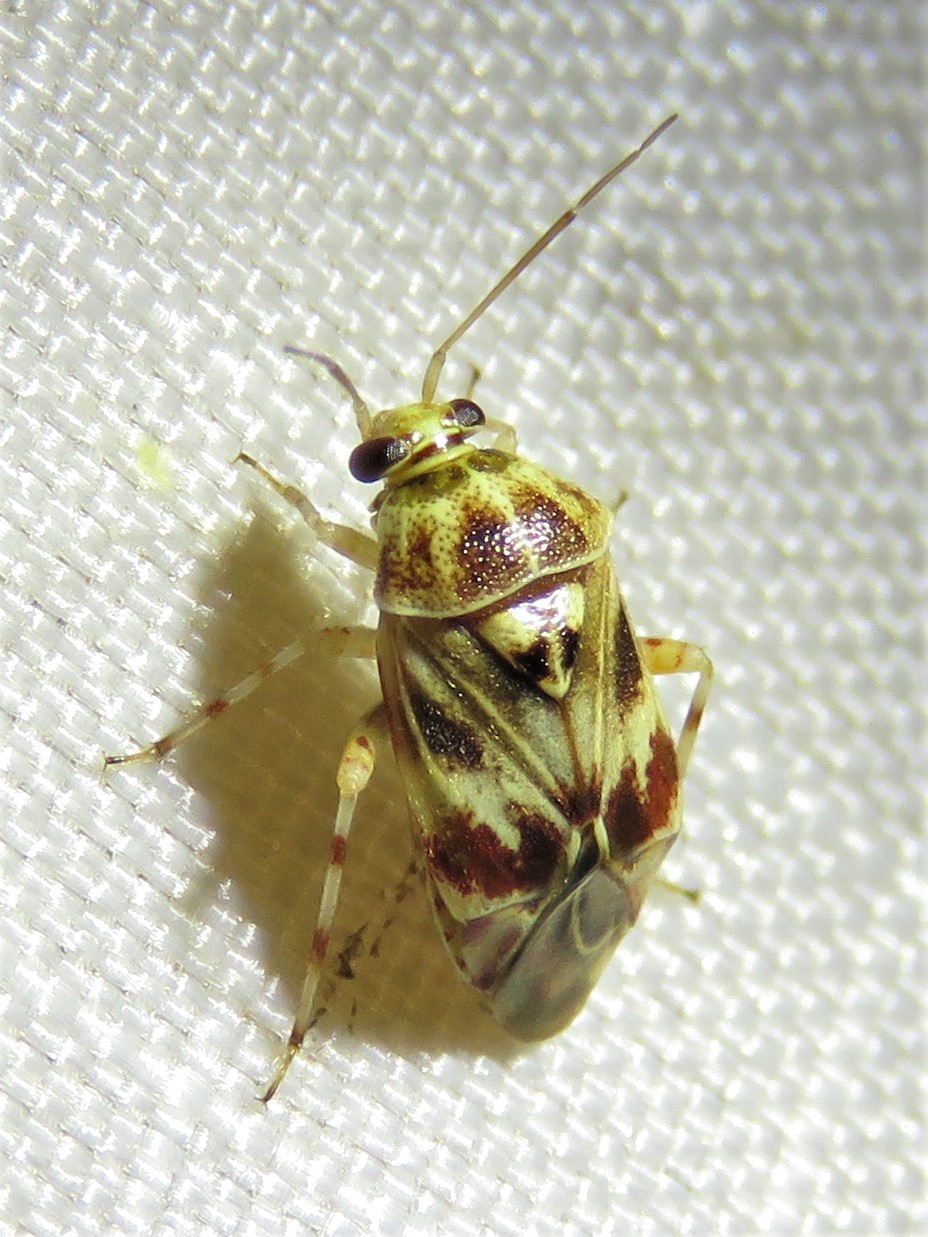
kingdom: Animalia
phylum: Arthropoda
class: Insecta
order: Hemiptera
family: Miridae
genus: Tropidosteptes
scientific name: Tropidosteptes quercicola
